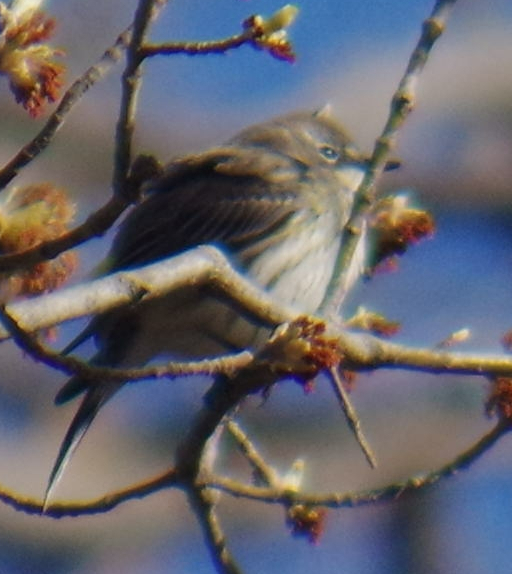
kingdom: Animalia
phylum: Chordata
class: Aves
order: Passeriformes
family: Parulidae
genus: Setophaga
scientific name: Setophaga coronata
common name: Myrtle warbler
